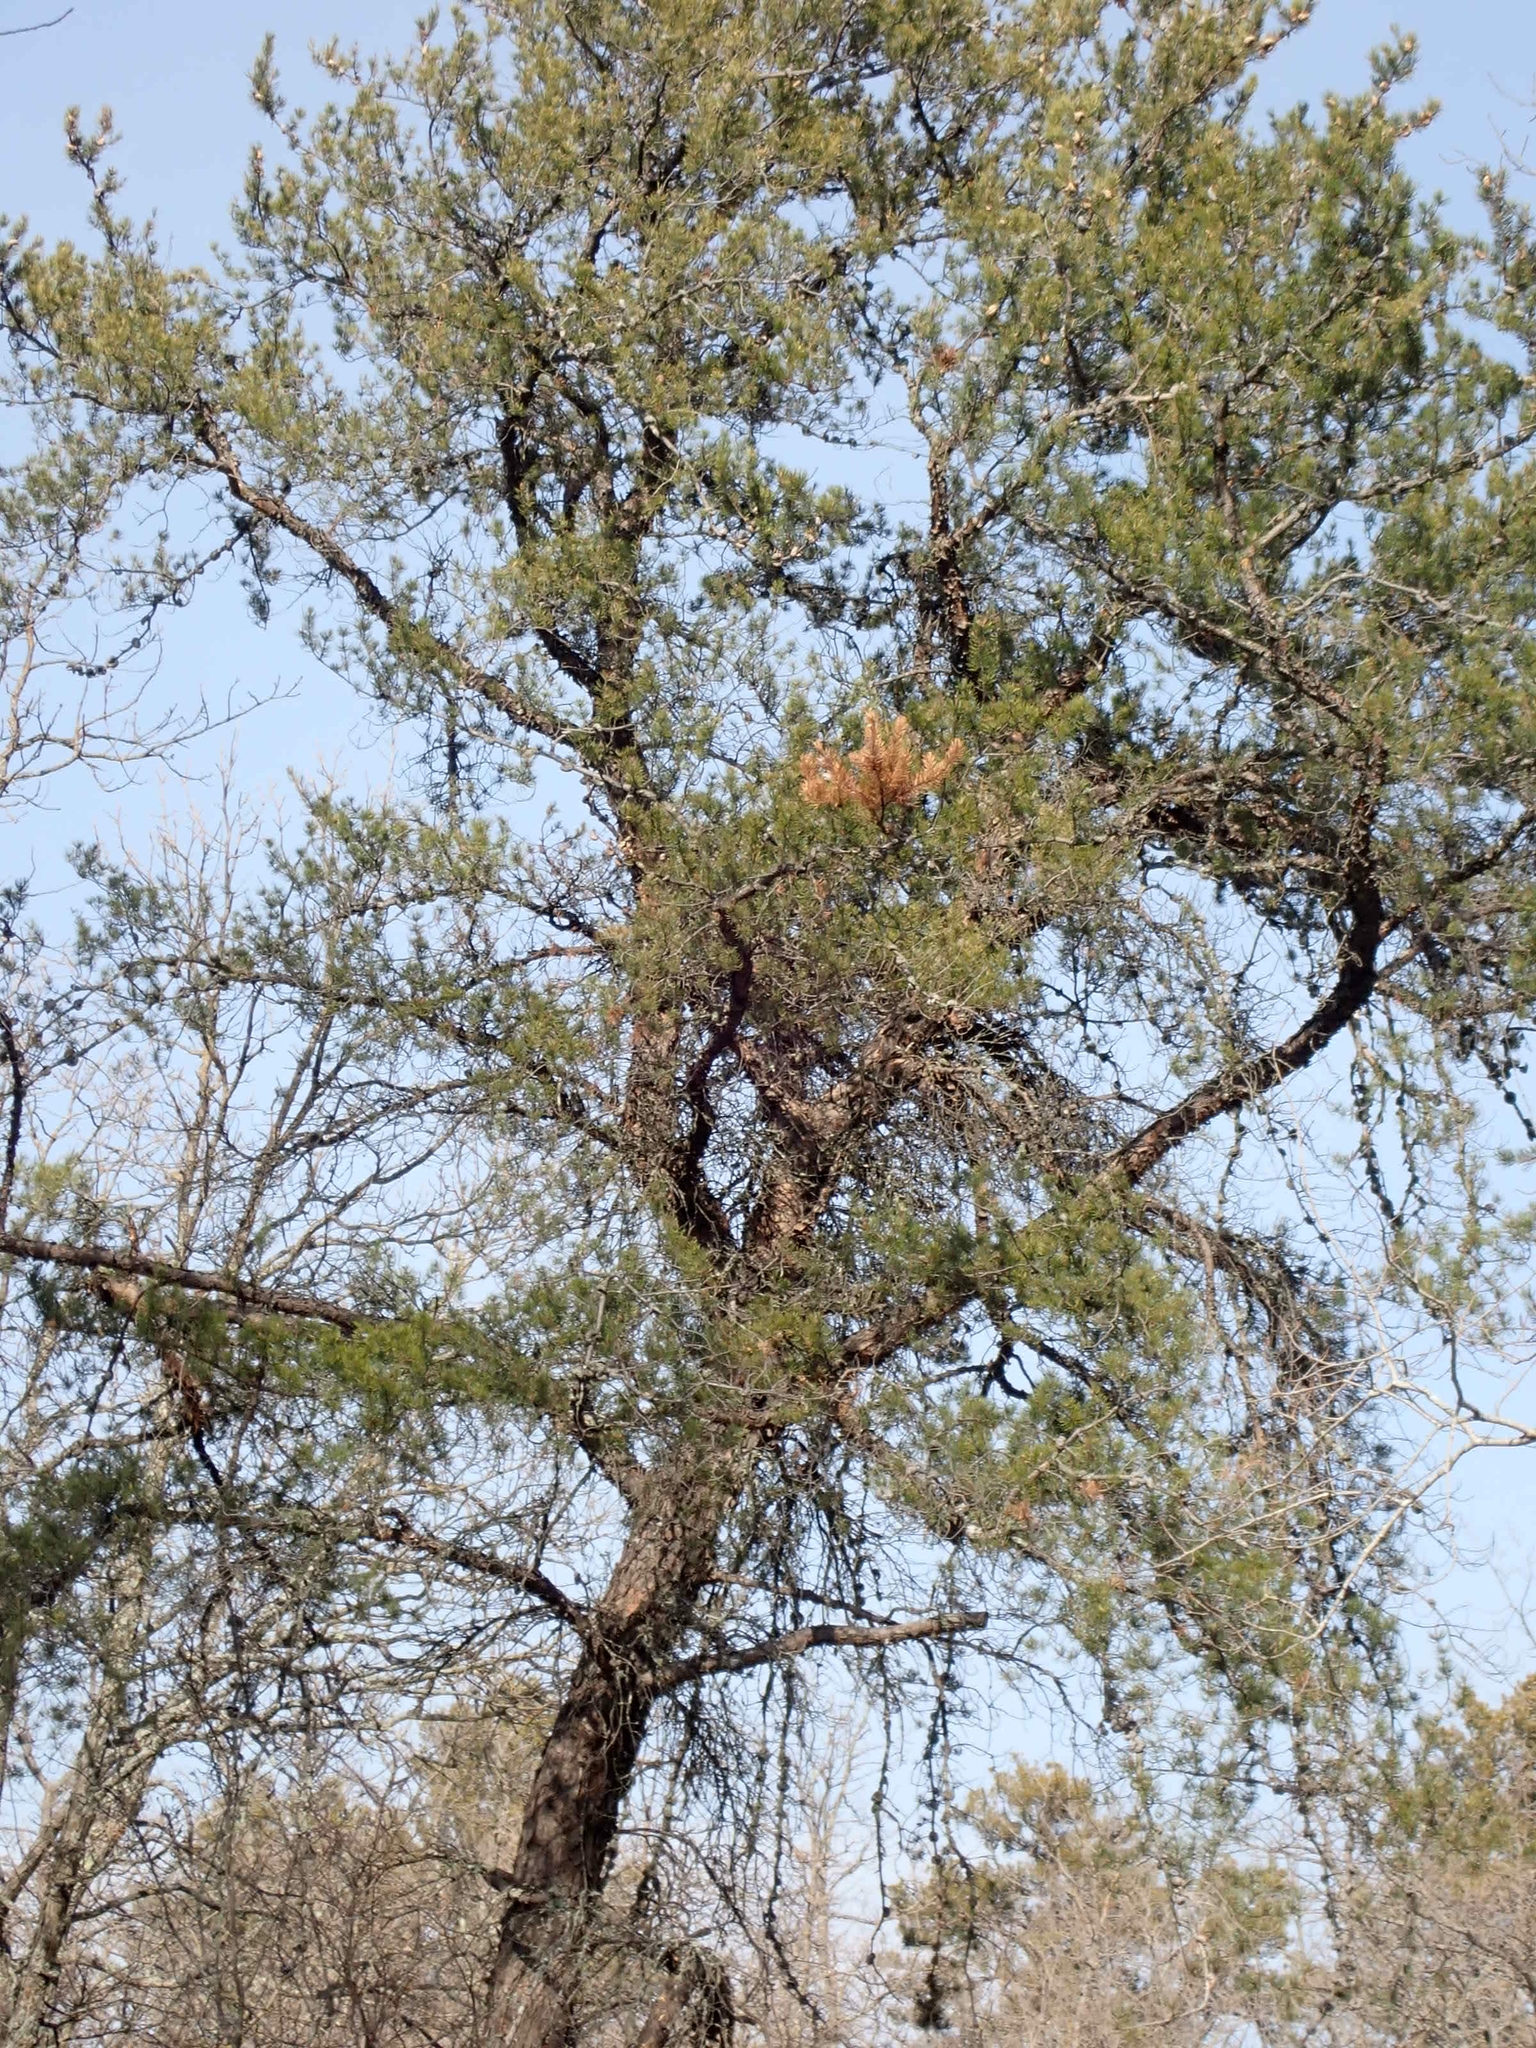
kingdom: Plantae
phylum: Tracheophyta
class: Pinopsida
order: Pinales
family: Pinaceae
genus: Pinus
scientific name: Pinus banksiana
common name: Jack pine
